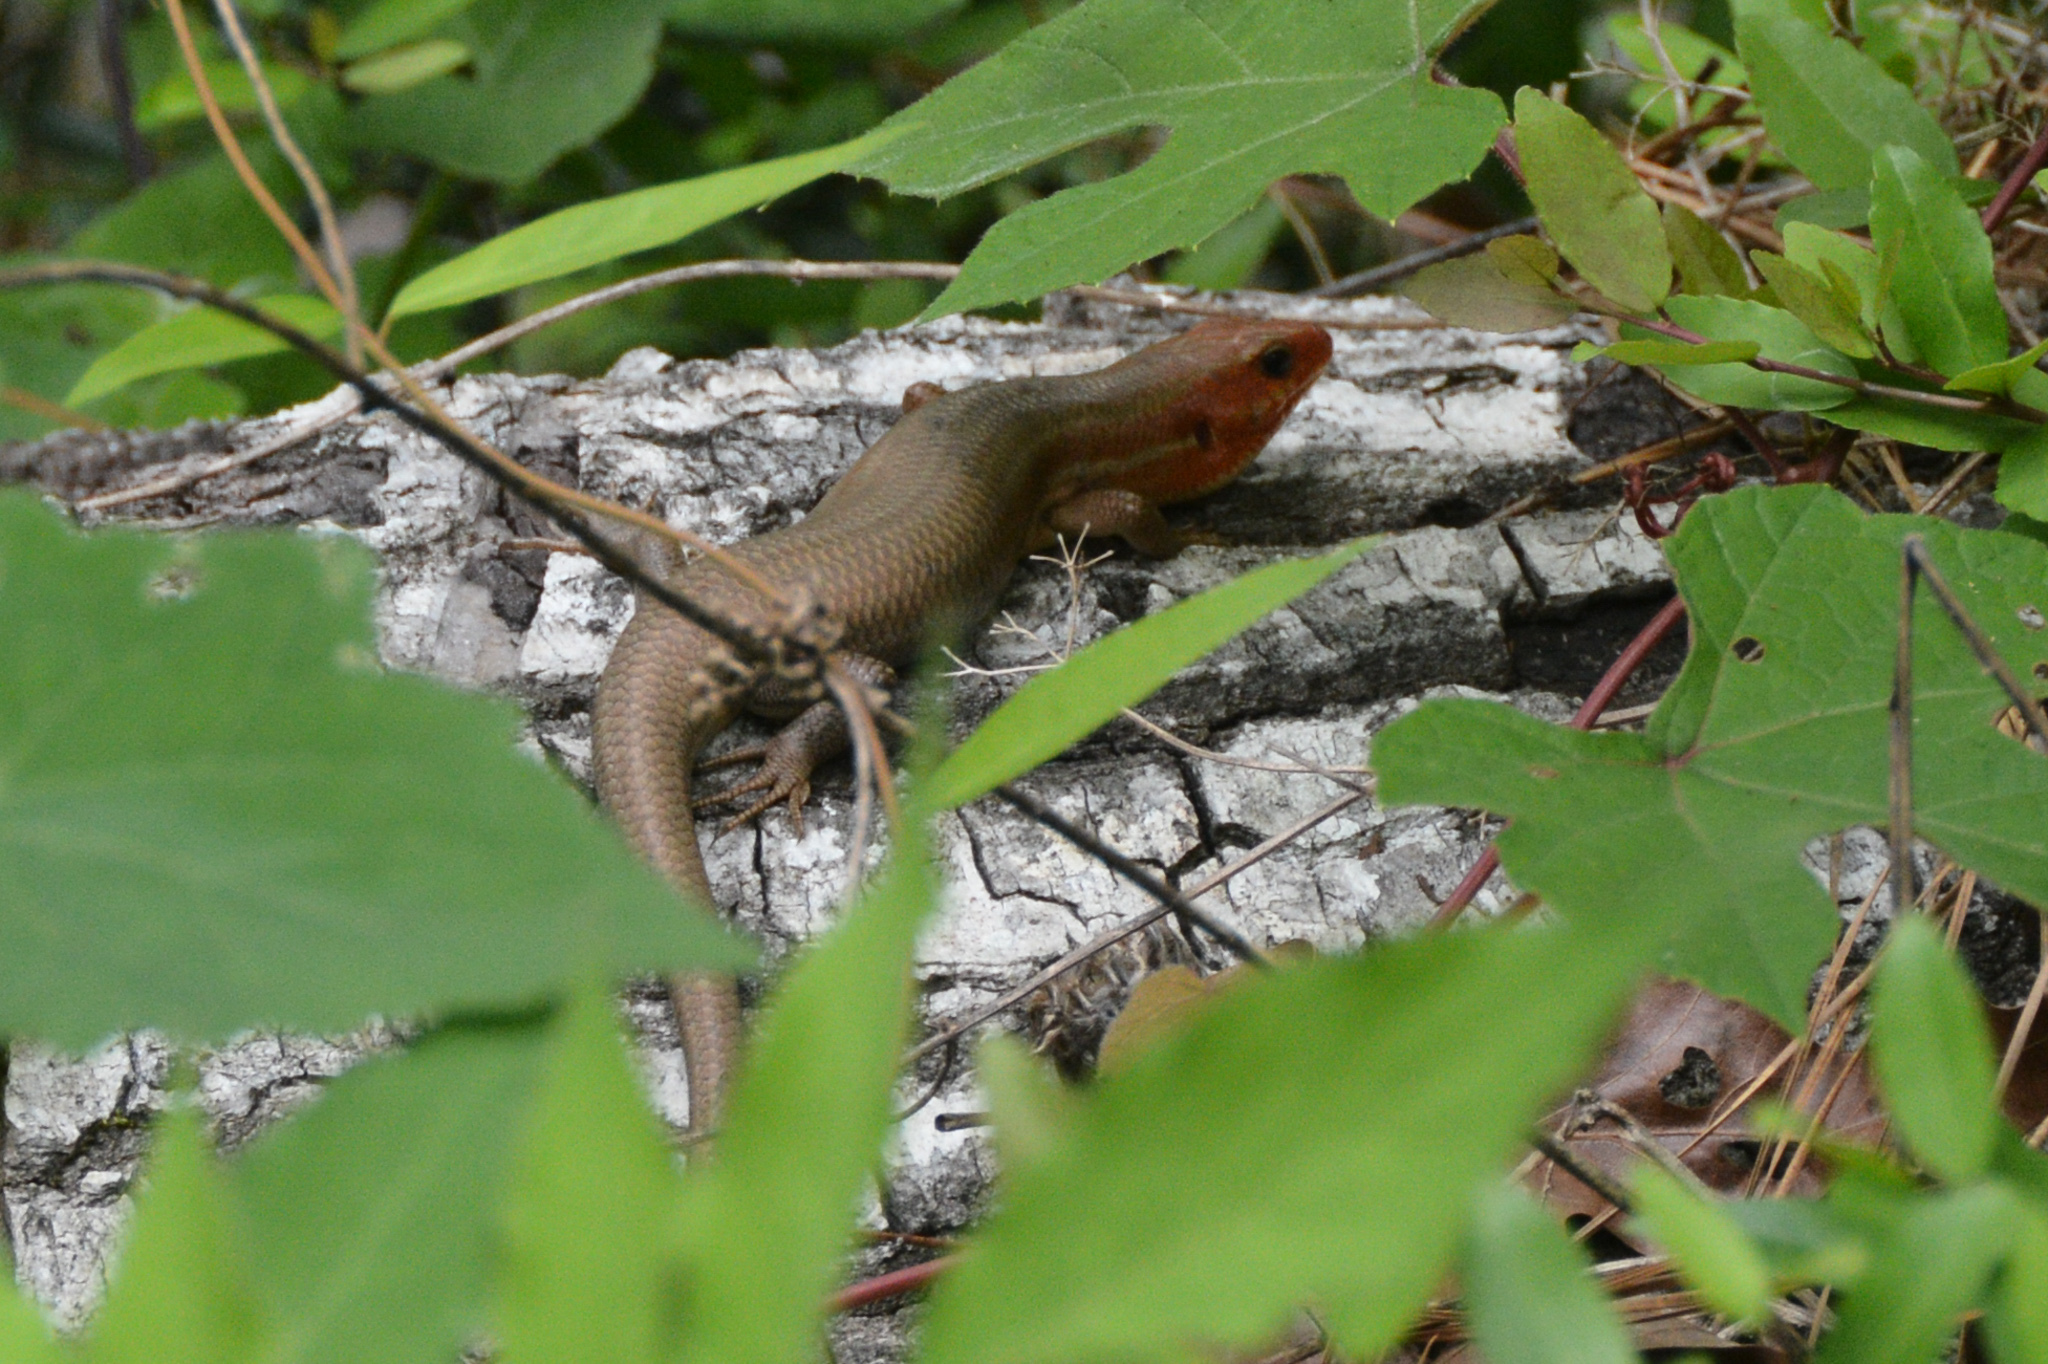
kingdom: Animalia
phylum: Chordata
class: Squamata
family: Scincidae
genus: Plestiodon
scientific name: Plestiodon
